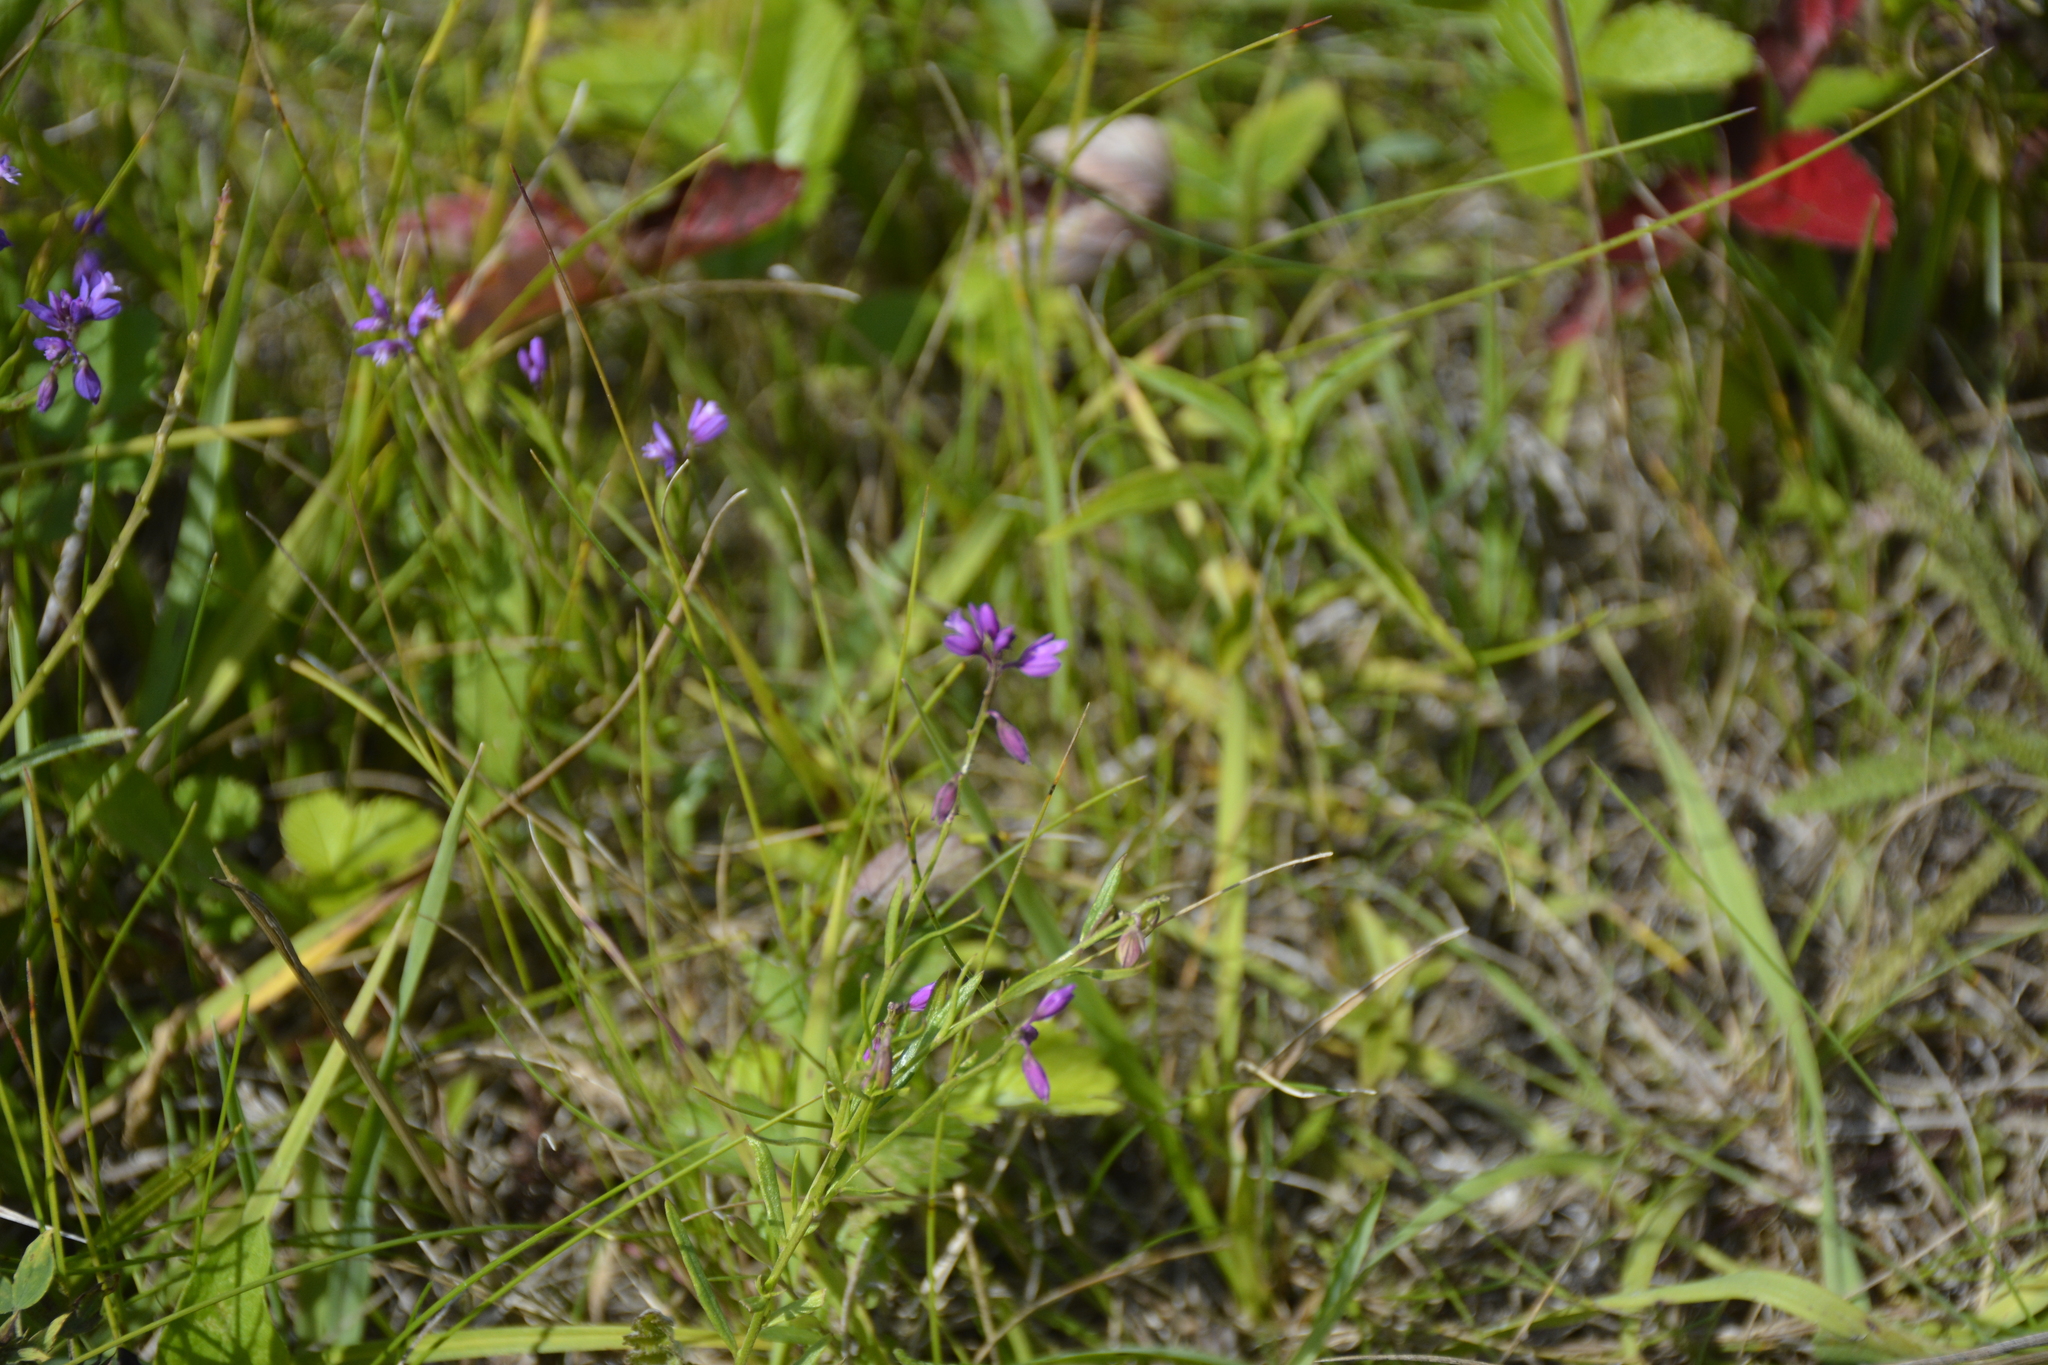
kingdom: Plantae
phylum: Tracheophyta
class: Magnoliopsida
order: Fabales
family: Polygalaceae
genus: Polygala
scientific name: Polygala comosa
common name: Tufted milkwort
